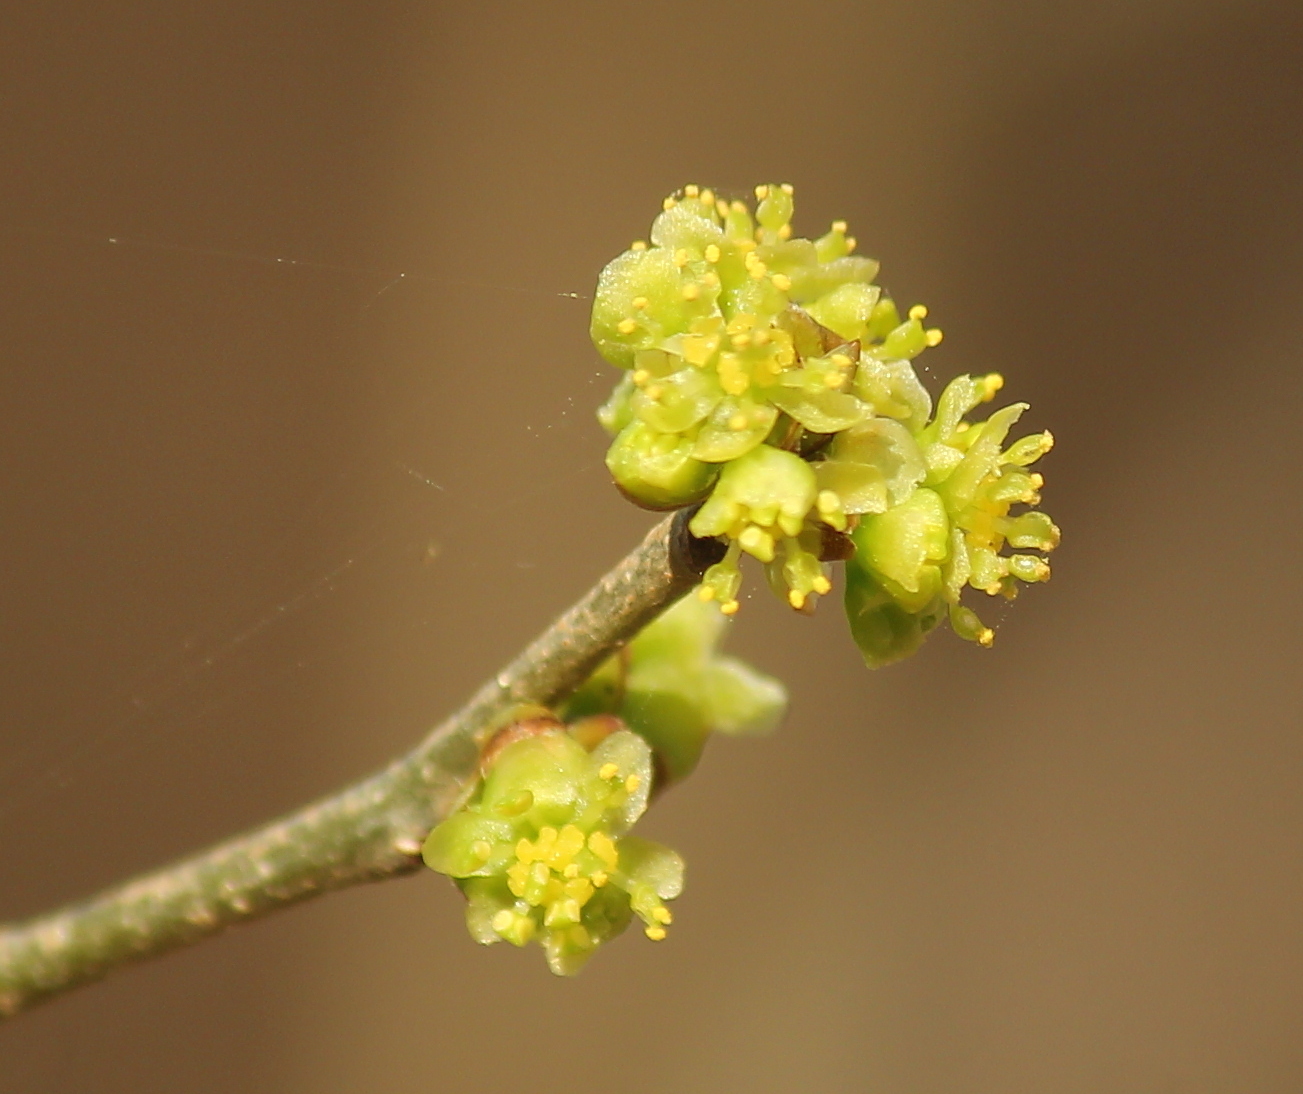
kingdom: Plantae
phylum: Tracheophyta
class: Magnoliopsida
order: Laurales
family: Lauraceae
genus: Lindera
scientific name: Lindera benzoin
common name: Spicebush
